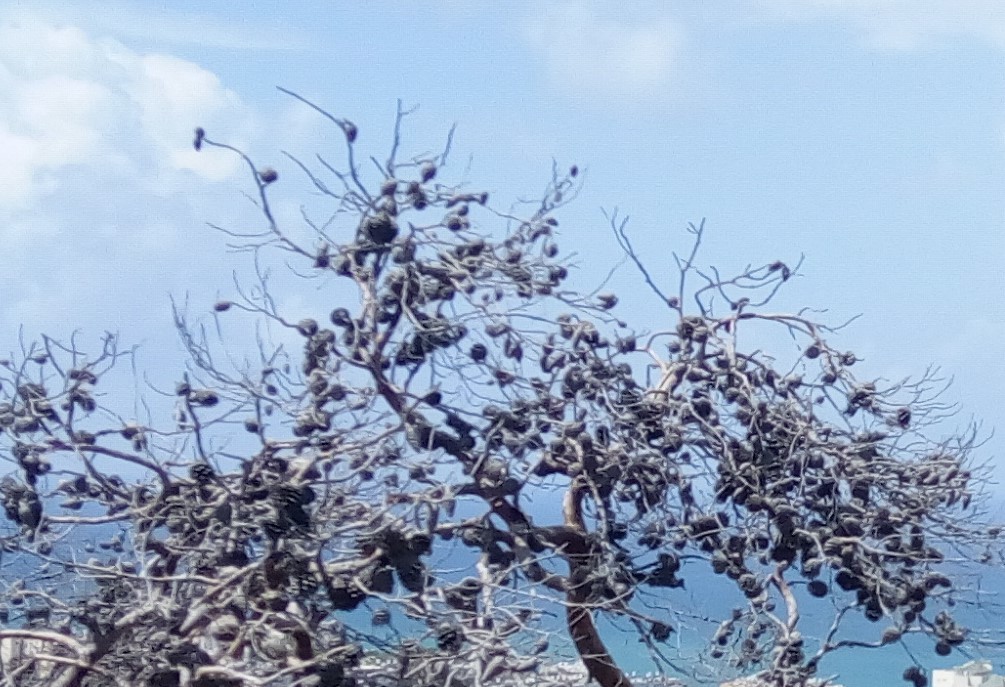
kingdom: Plantae
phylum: Tracheophyta
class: Pinopsida
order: Pinales
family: Pinaceae
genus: Pinus
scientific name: Pinus halepensis
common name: Aleppo pine
